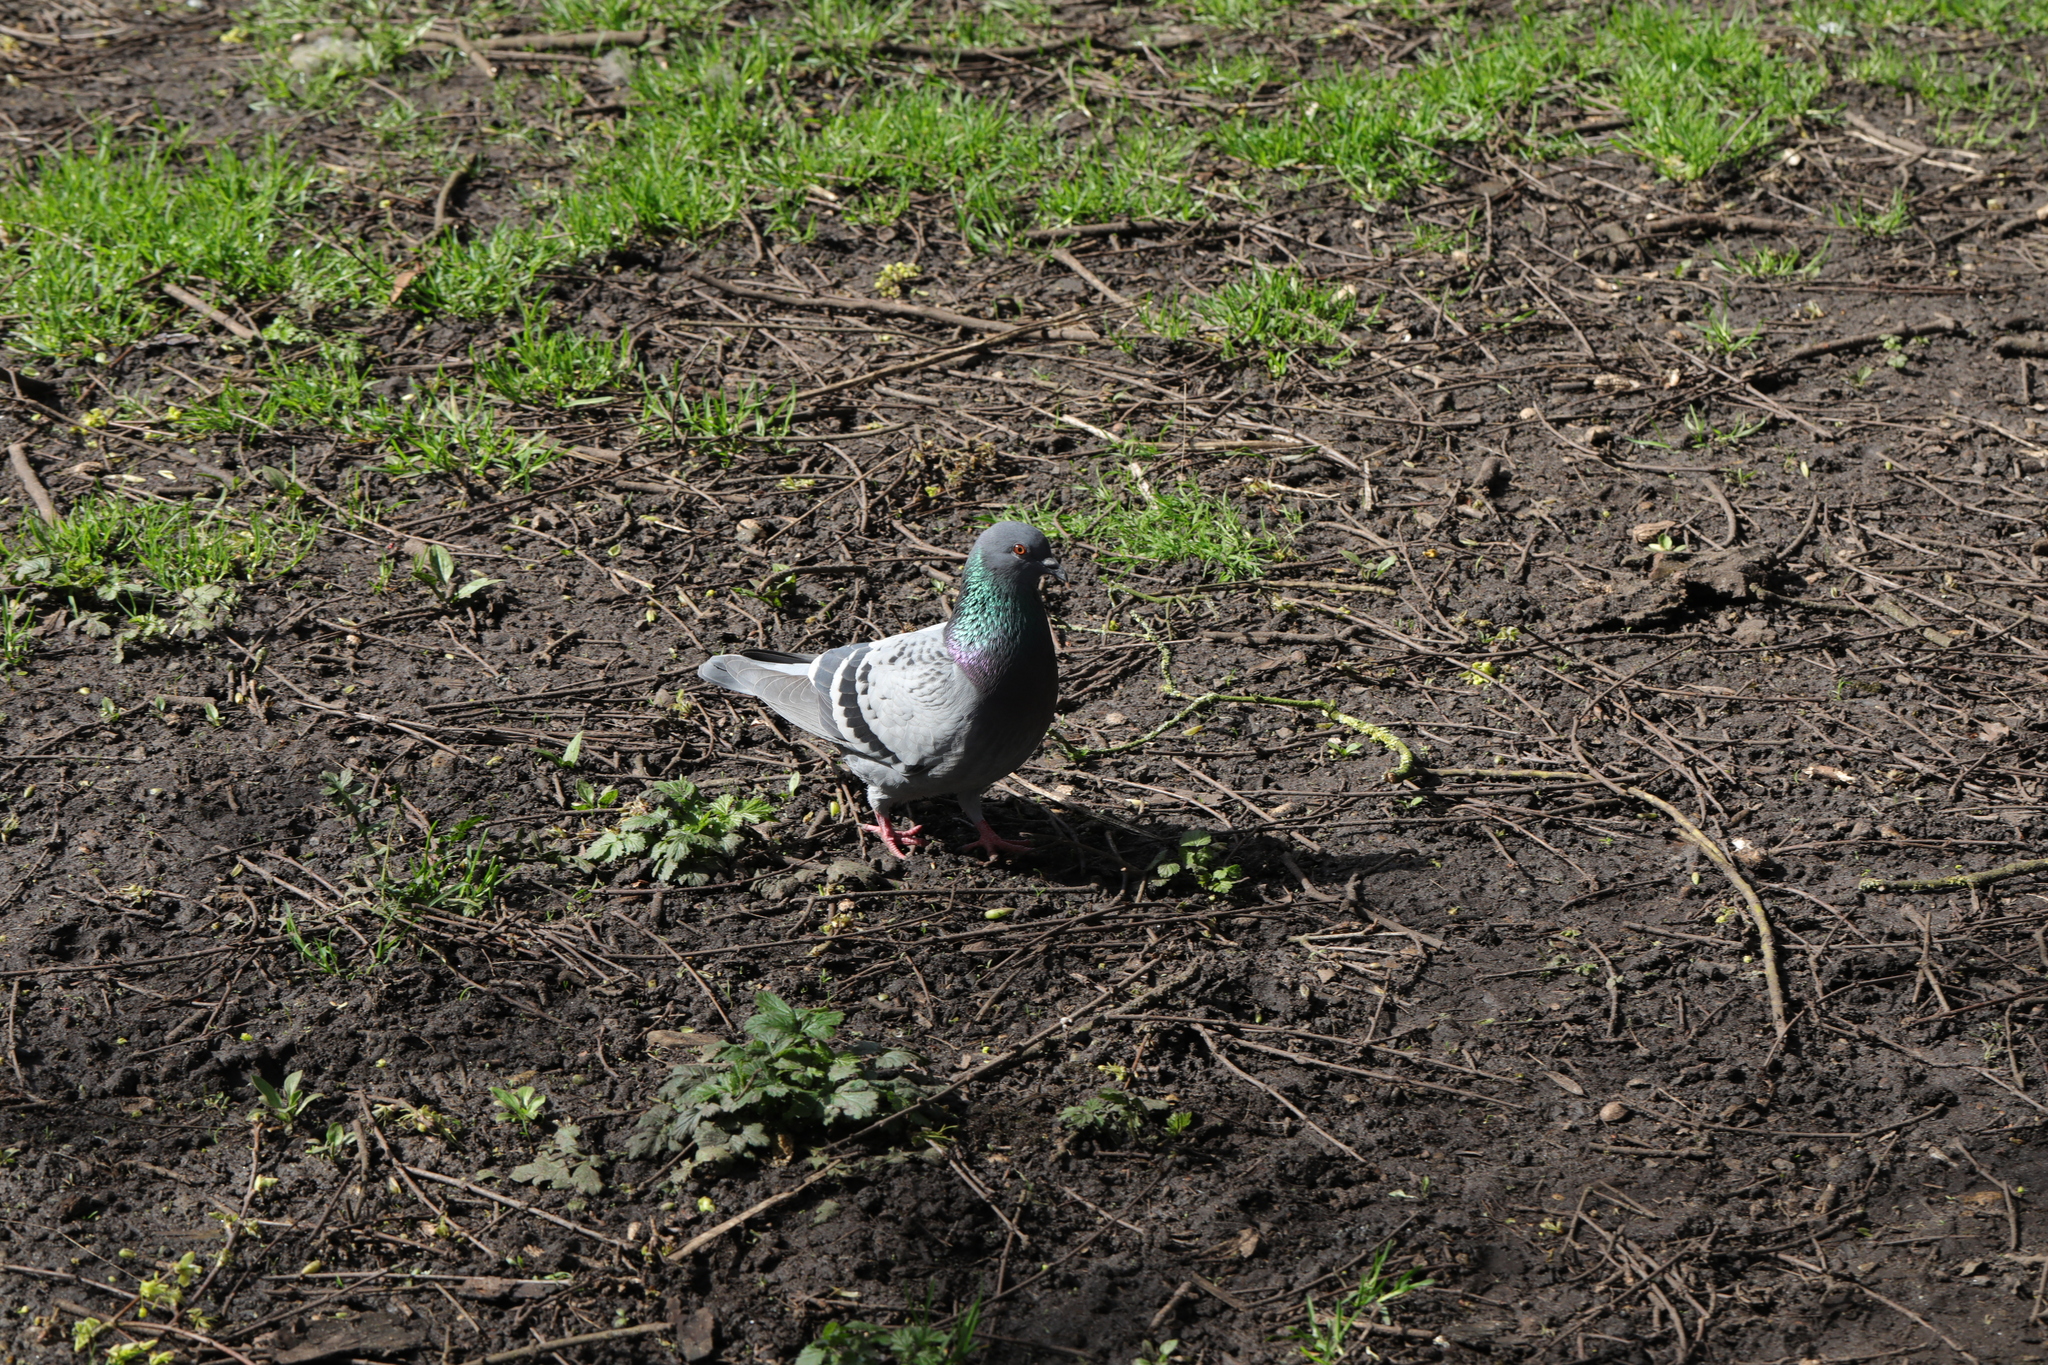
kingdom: Animalia
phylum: Chordata
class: Aves
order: Columbiformes
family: Columbidae
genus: Columba
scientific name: Columba livia
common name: Rock pigeon
